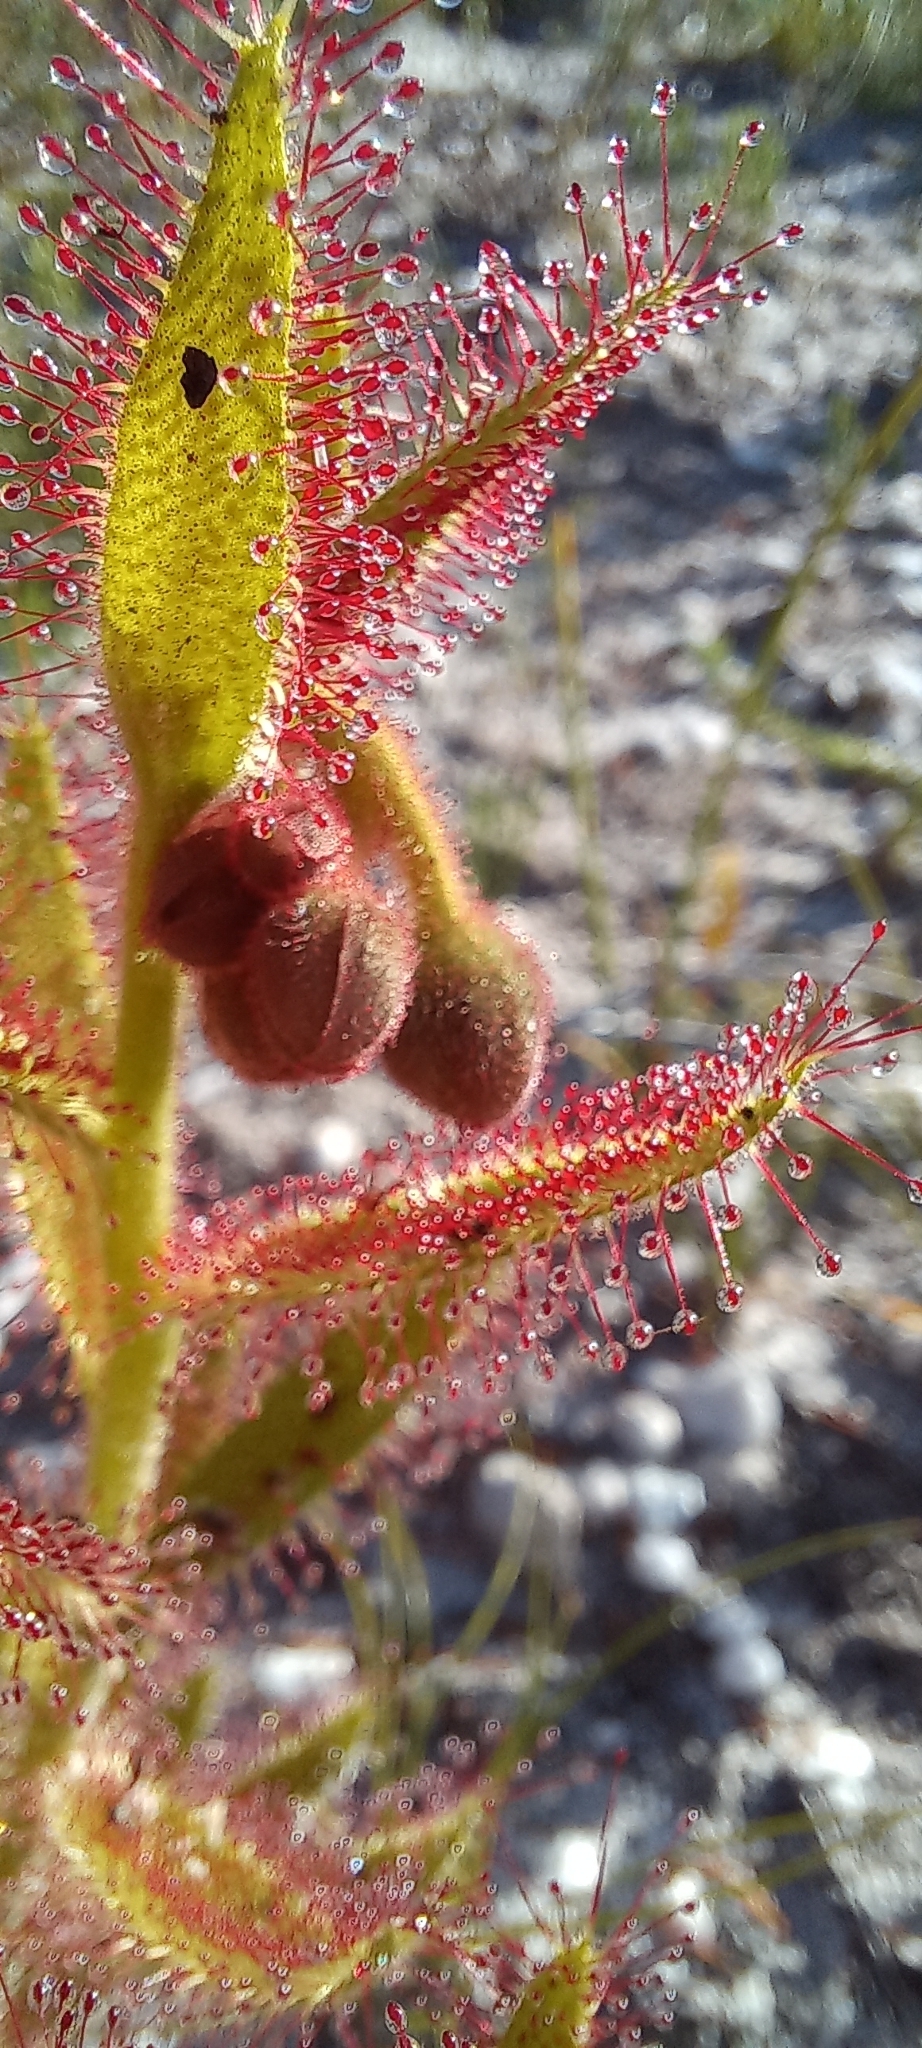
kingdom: Plantae
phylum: Tracheophyta
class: Magnoliopsida
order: Caryophyllales
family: Droseraceae
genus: Drosera
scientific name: Drosera cistiflora
